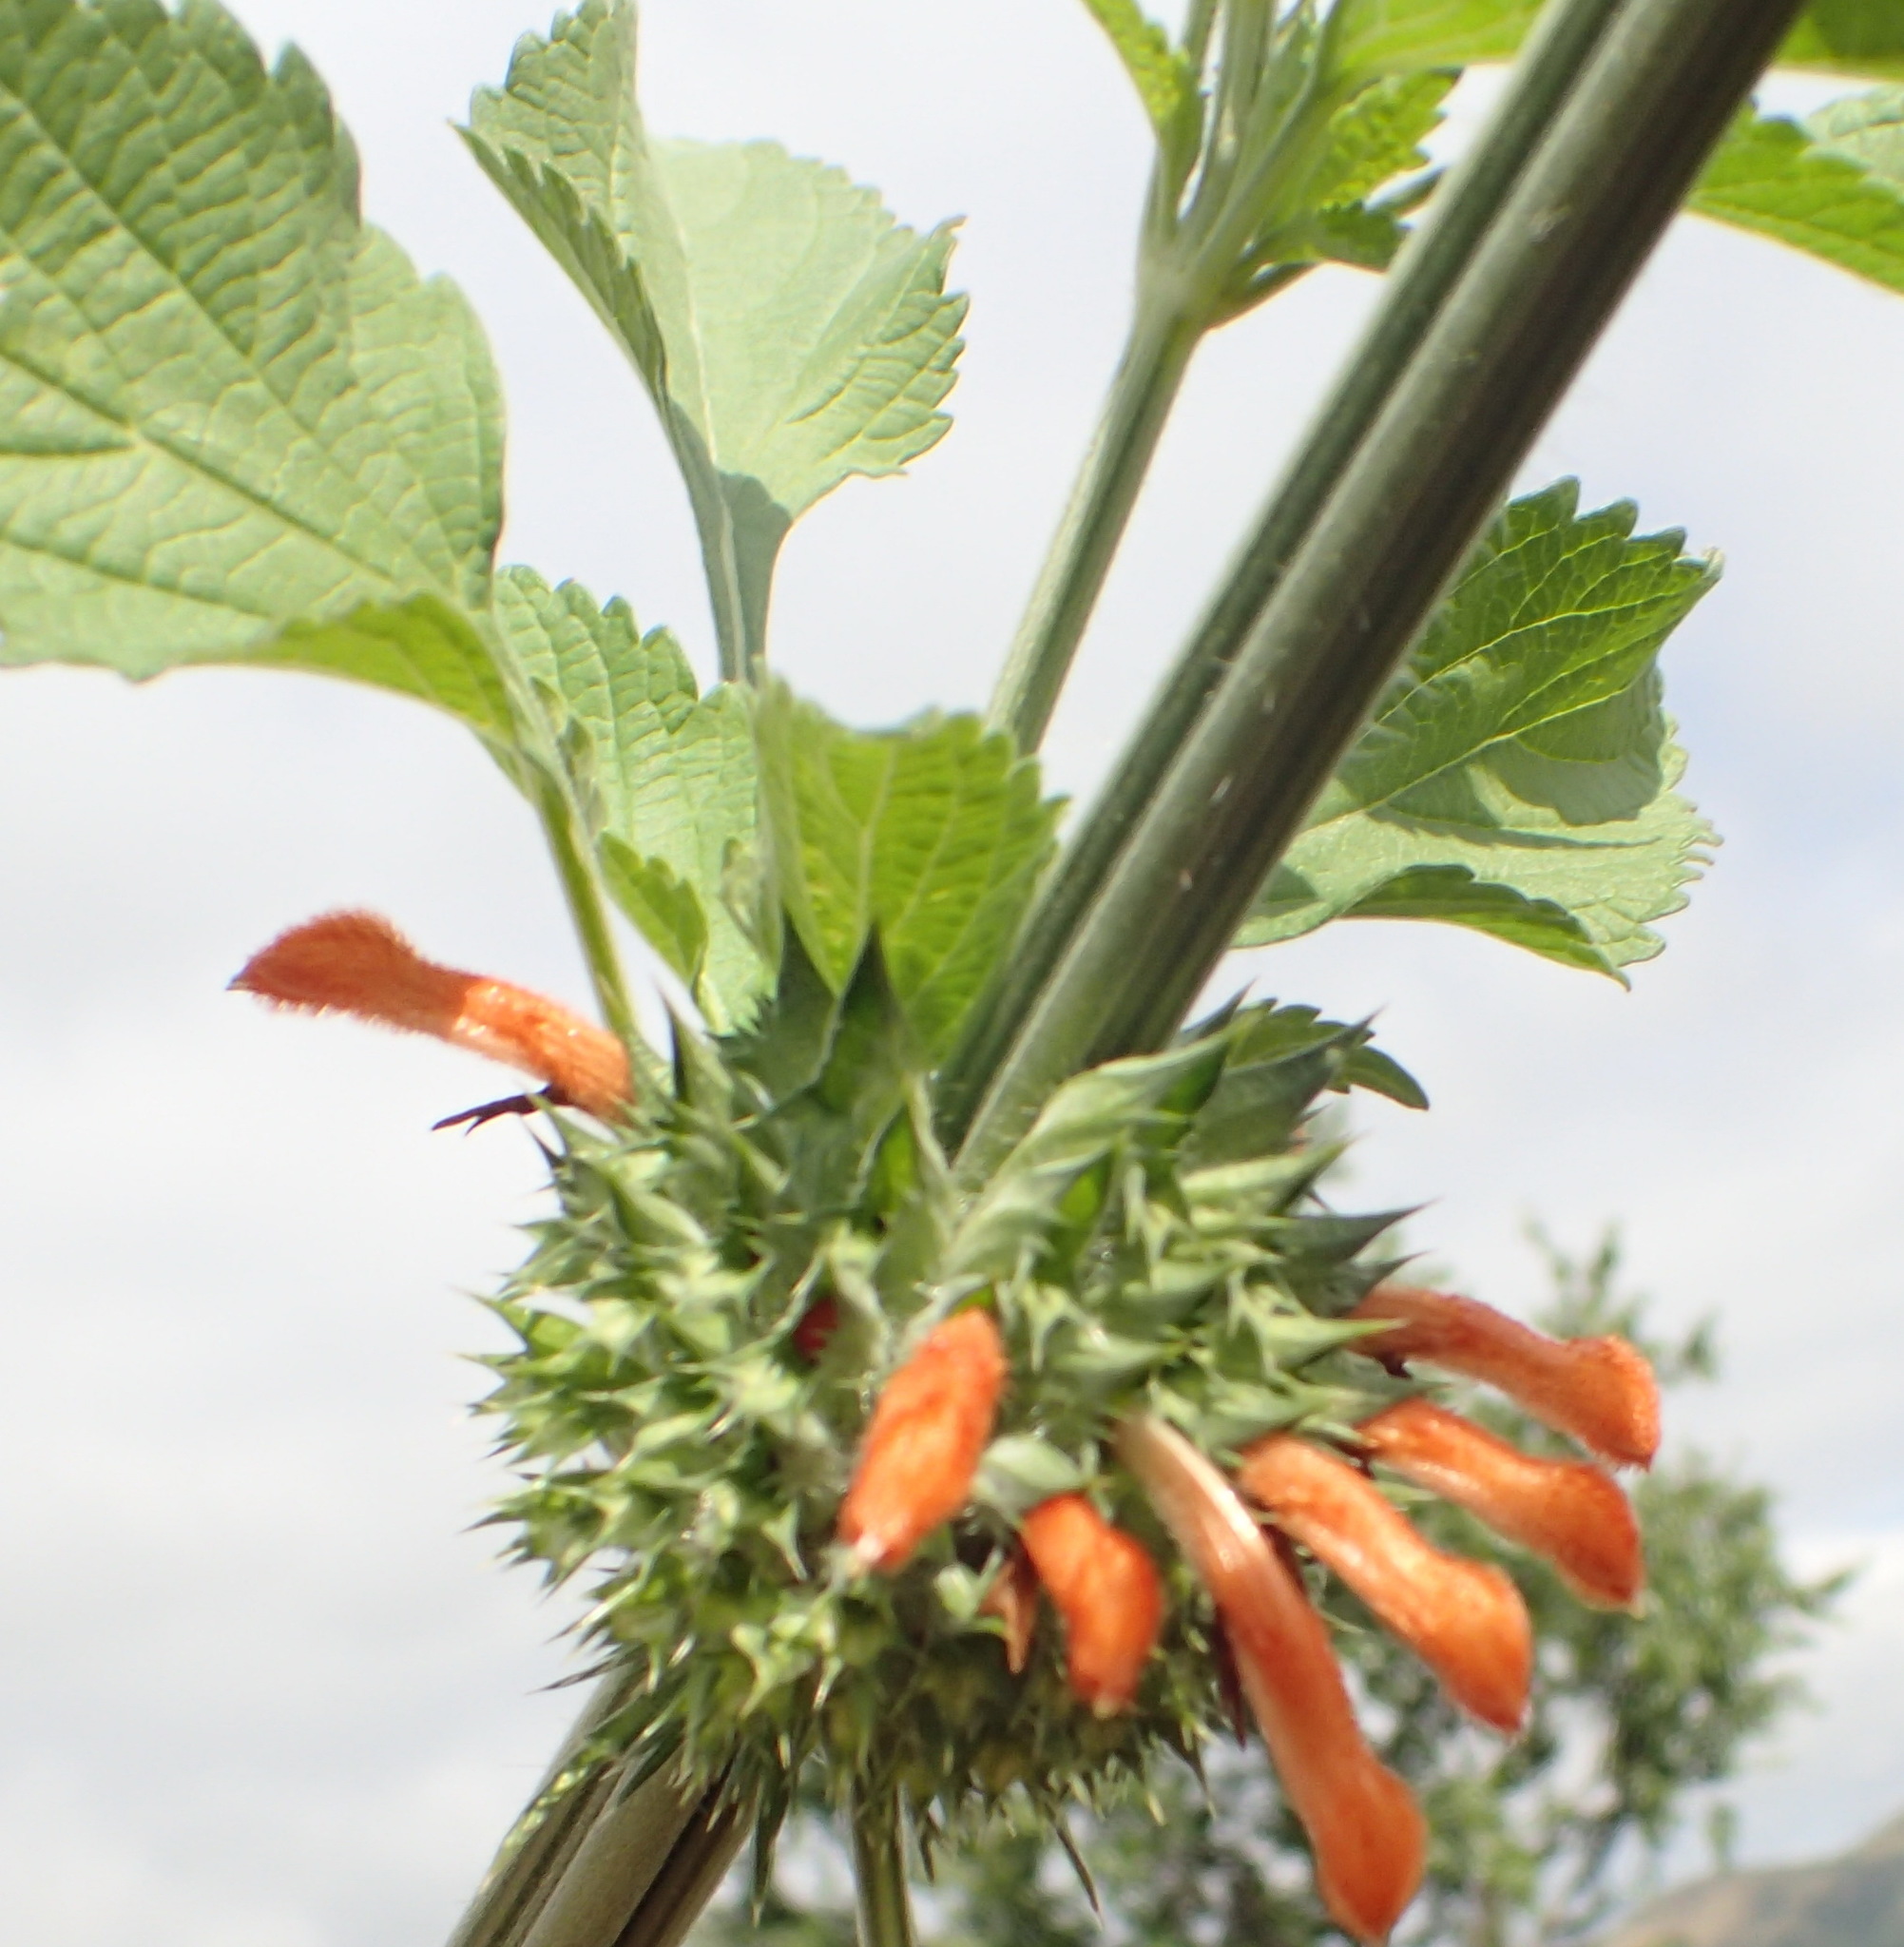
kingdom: Plantae
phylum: Tracheophyta
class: Magnoliopsida
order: Lamiales
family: Lamiaceae
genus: Leonotis
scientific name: Leonotis nepetifolia
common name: Christmas candlestick
